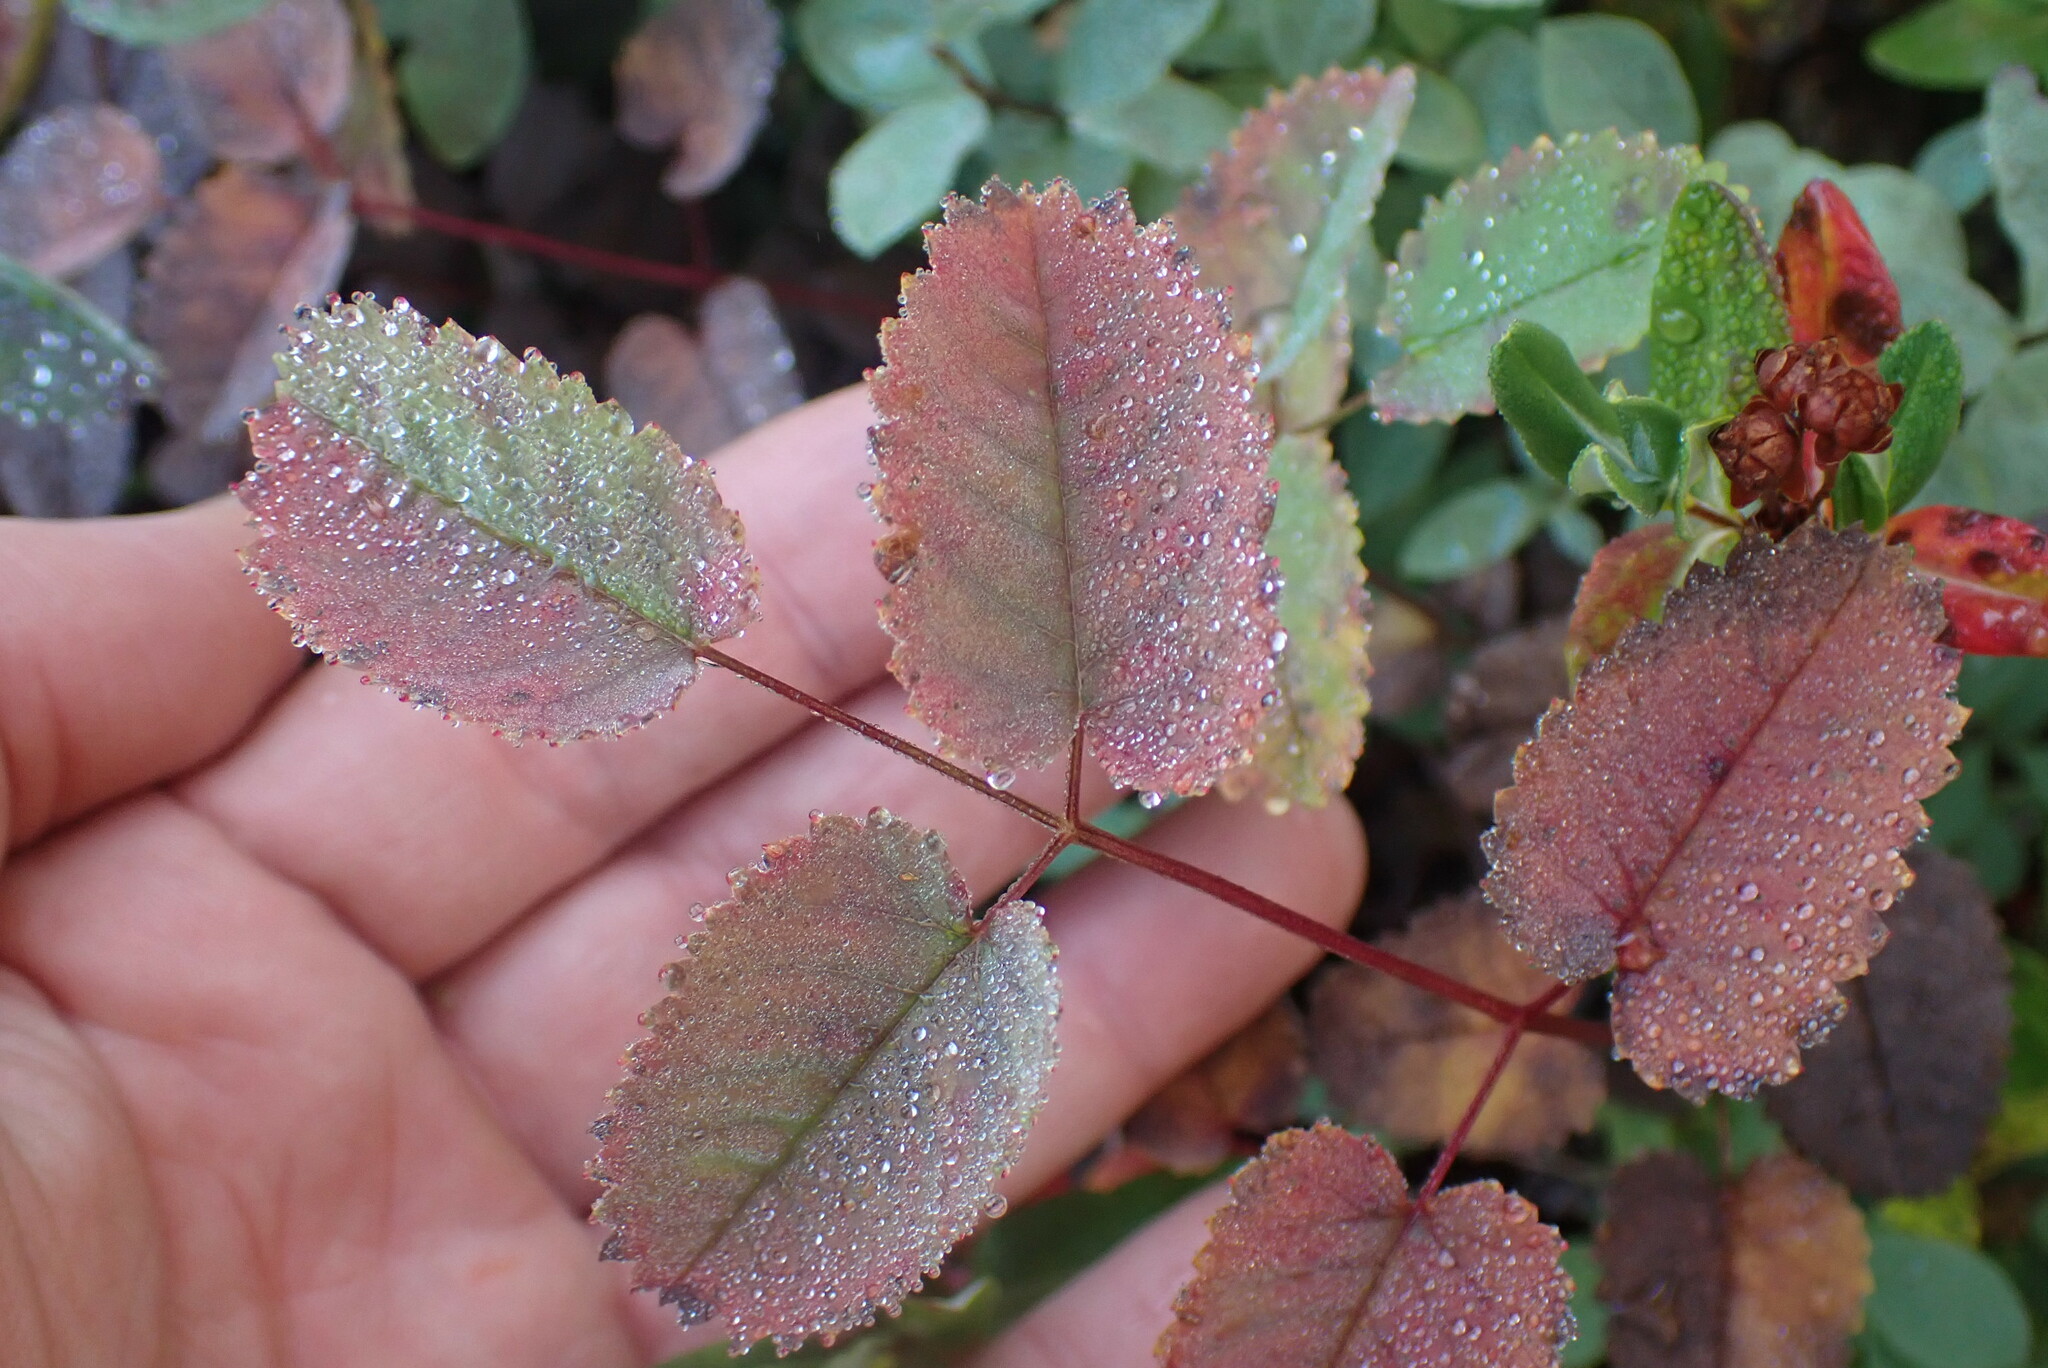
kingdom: Plantae
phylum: Tracheophyta
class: Magnoliopsida
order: Rosales
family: Rosaceae
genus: Sanguisorba
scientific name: Sanguisorba officinalis
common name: Great burnet
